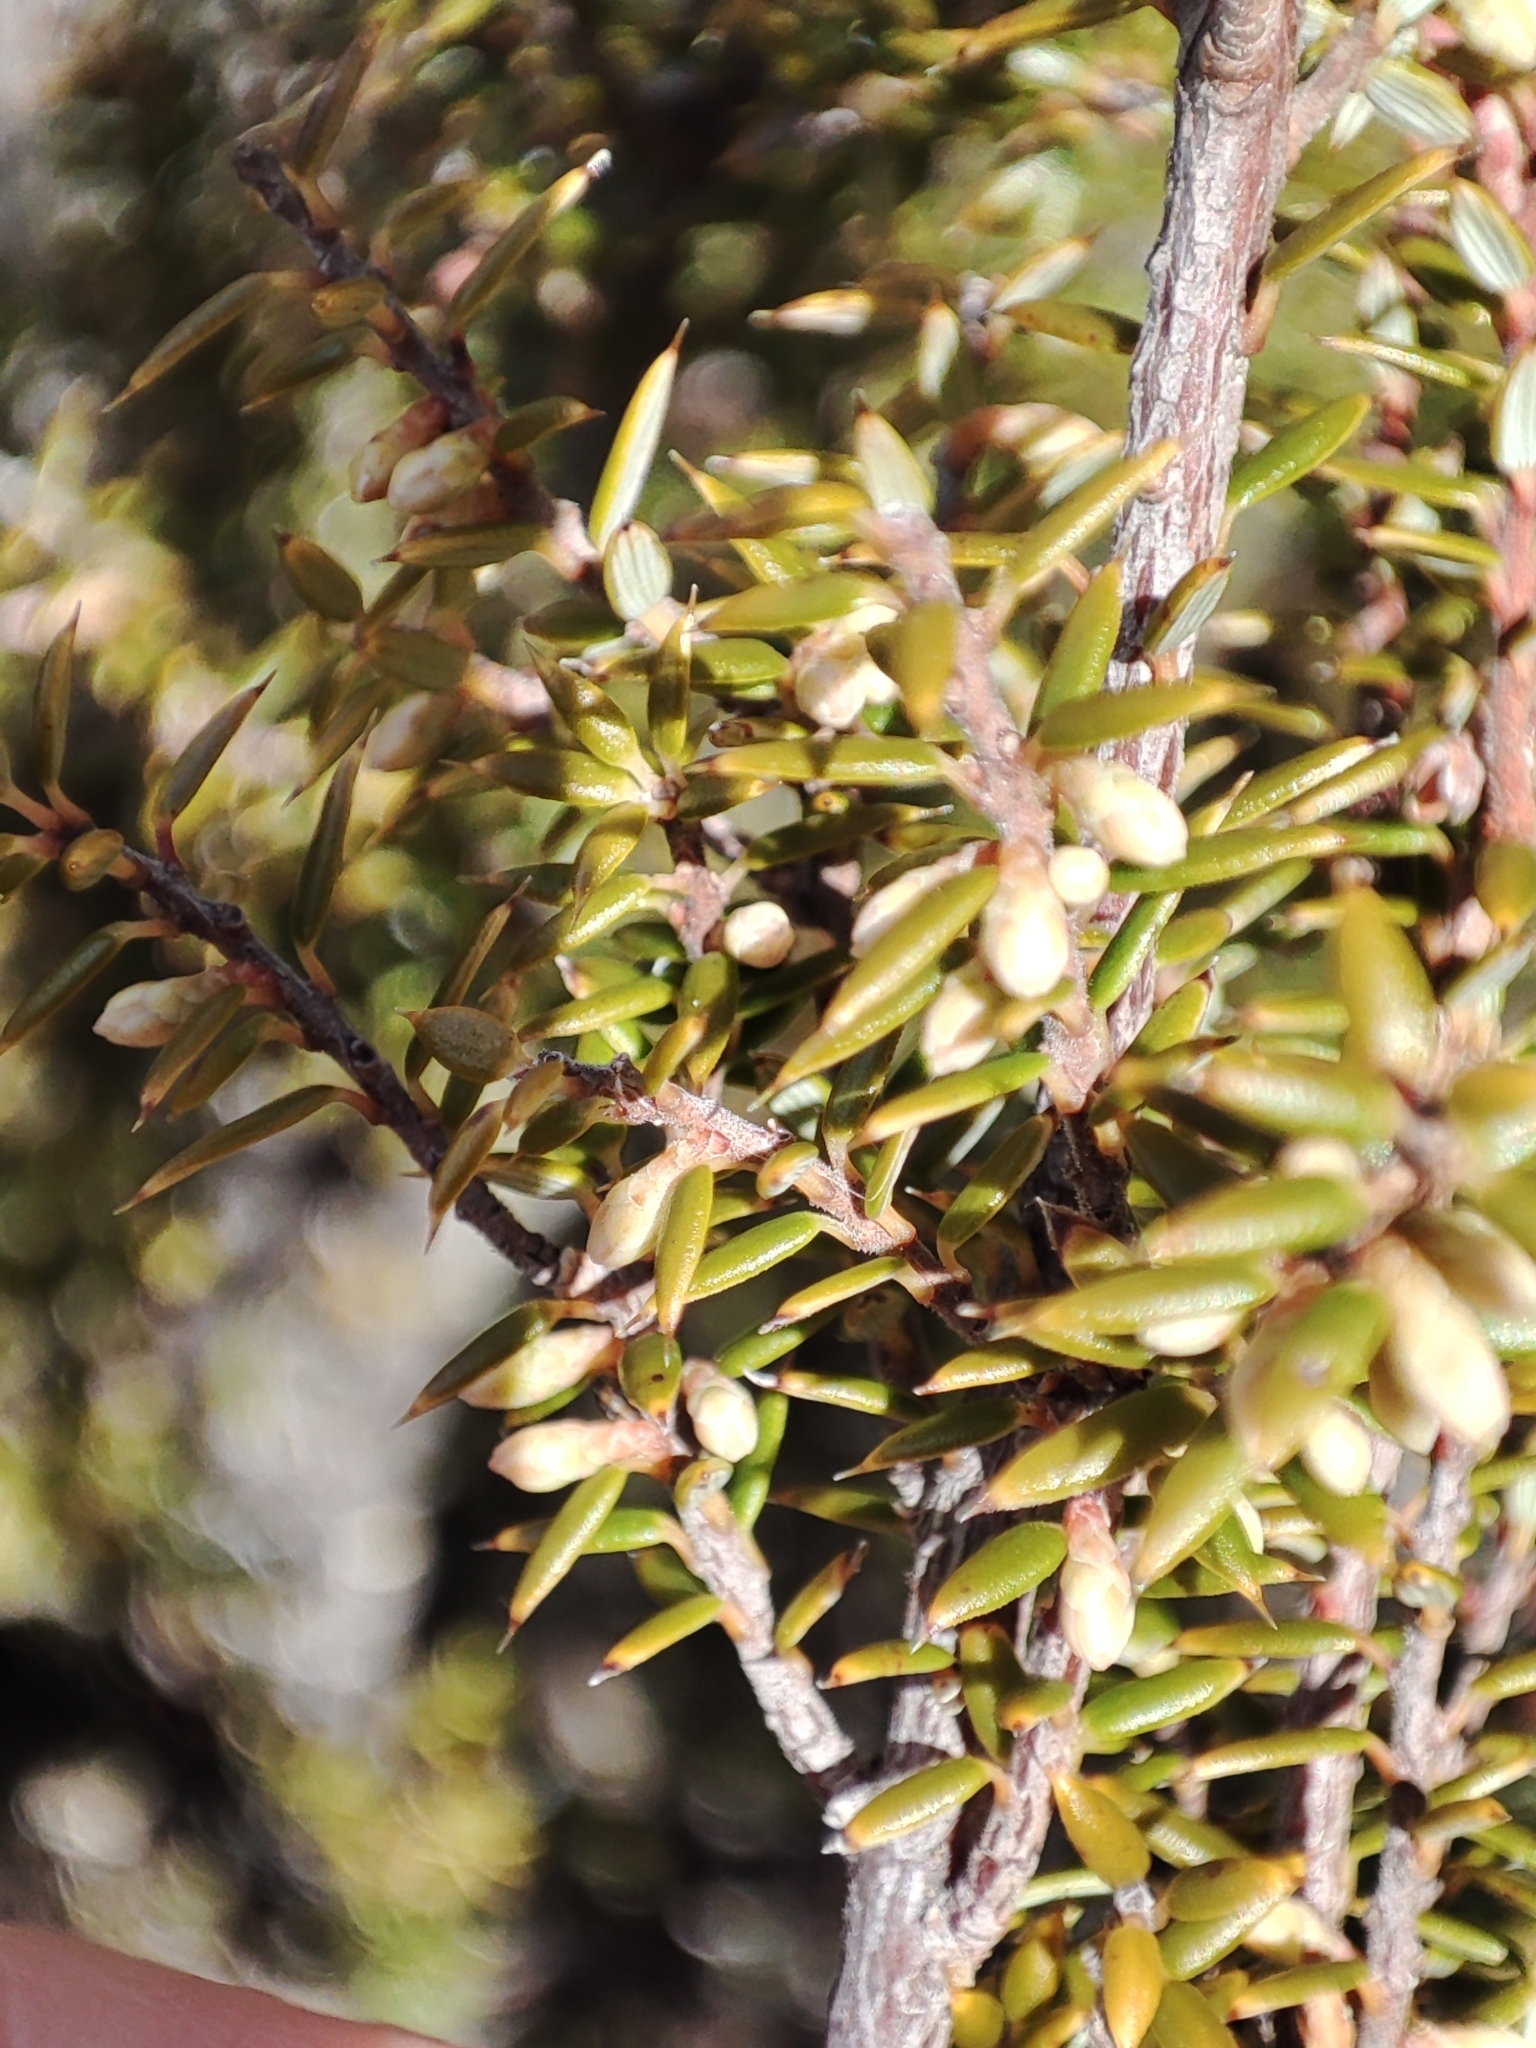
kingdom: Plantae
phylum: Tracheophyta
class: Magnoliopsida
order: Ericales
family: Ericaceae
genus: Leptecophylla
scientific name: Leptecophylla parvifolia
